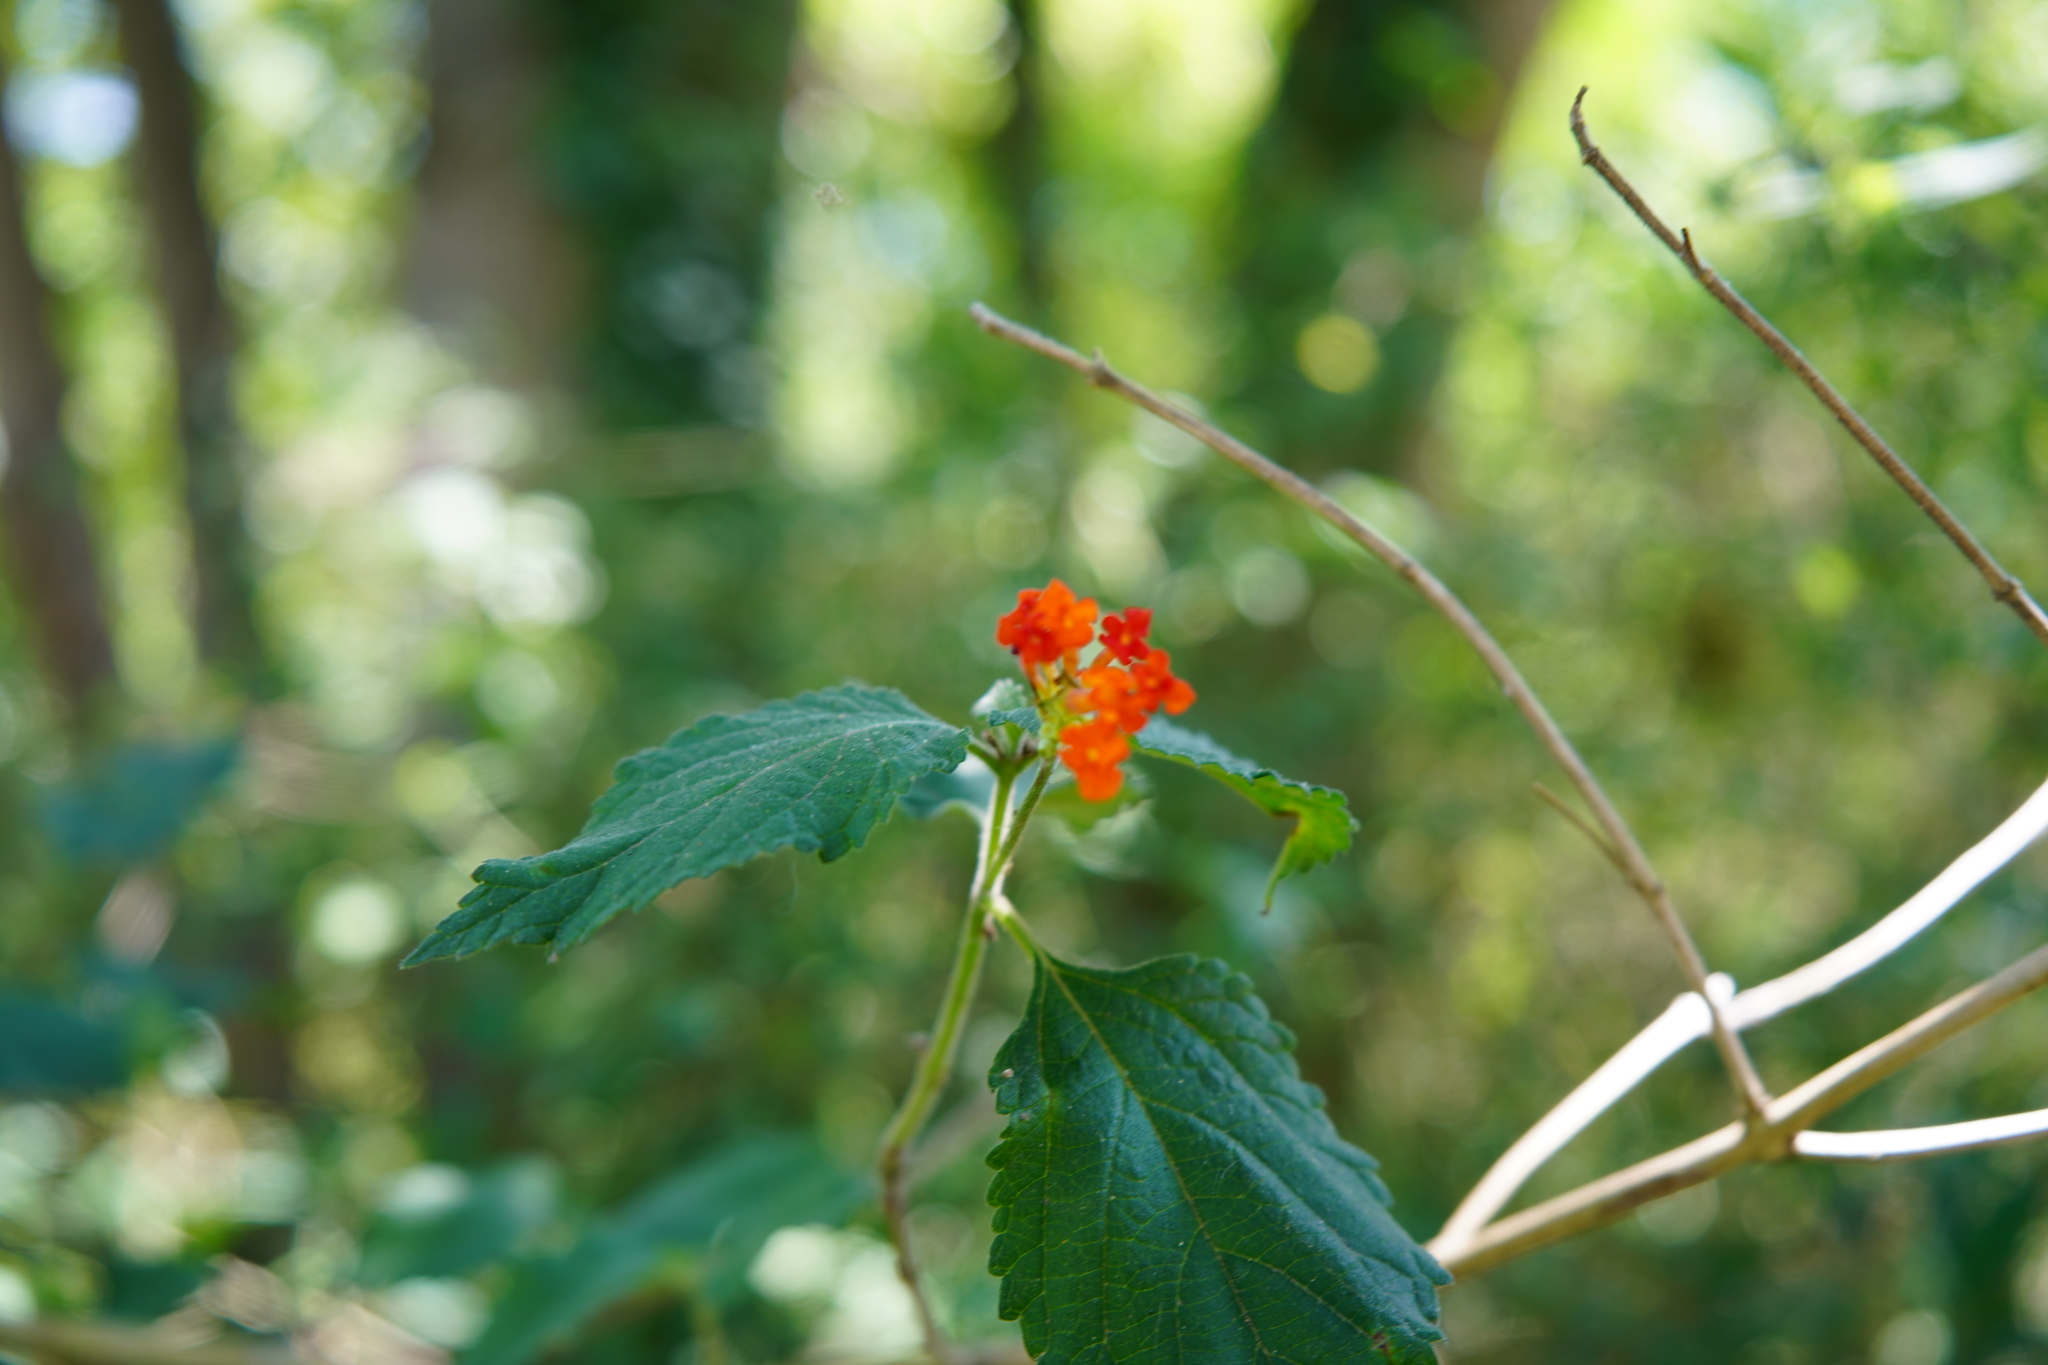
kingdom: Plantae
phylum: Tracheophyta
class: Magnoliopsida
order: Lamiales
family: Verbenaceae
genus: Lantana
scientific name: Lantana camara
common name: Lantana
